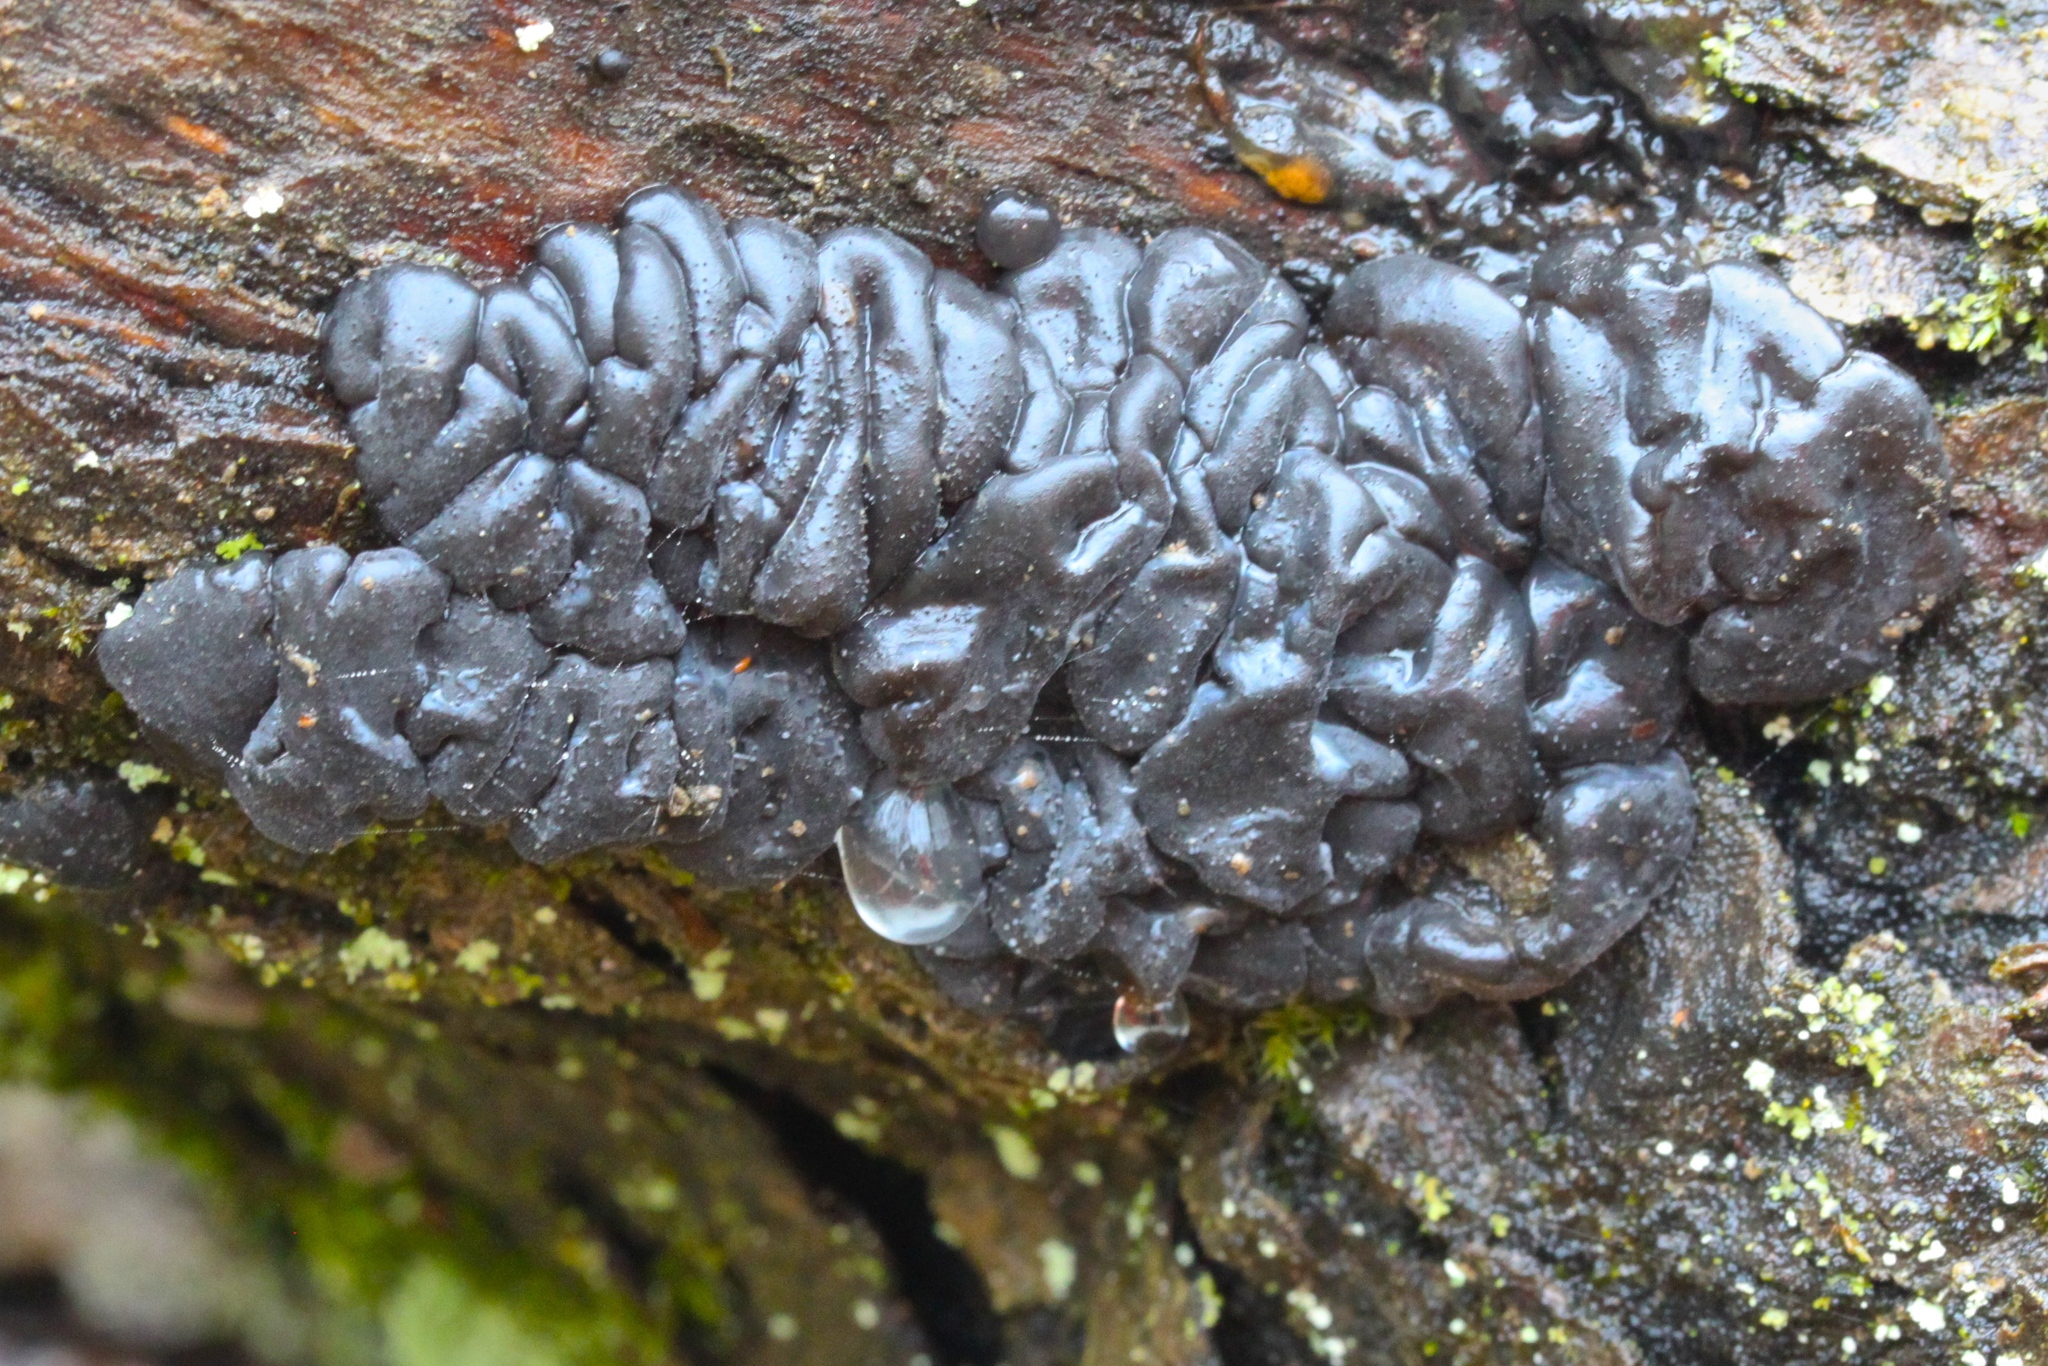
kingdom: Fungi
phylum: Basidiomycota
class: Agaricomycetes
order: Auriculariales
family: Auriculariaceae
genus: Exidia
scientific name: Exidia glandulosa
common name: Witches' butter
